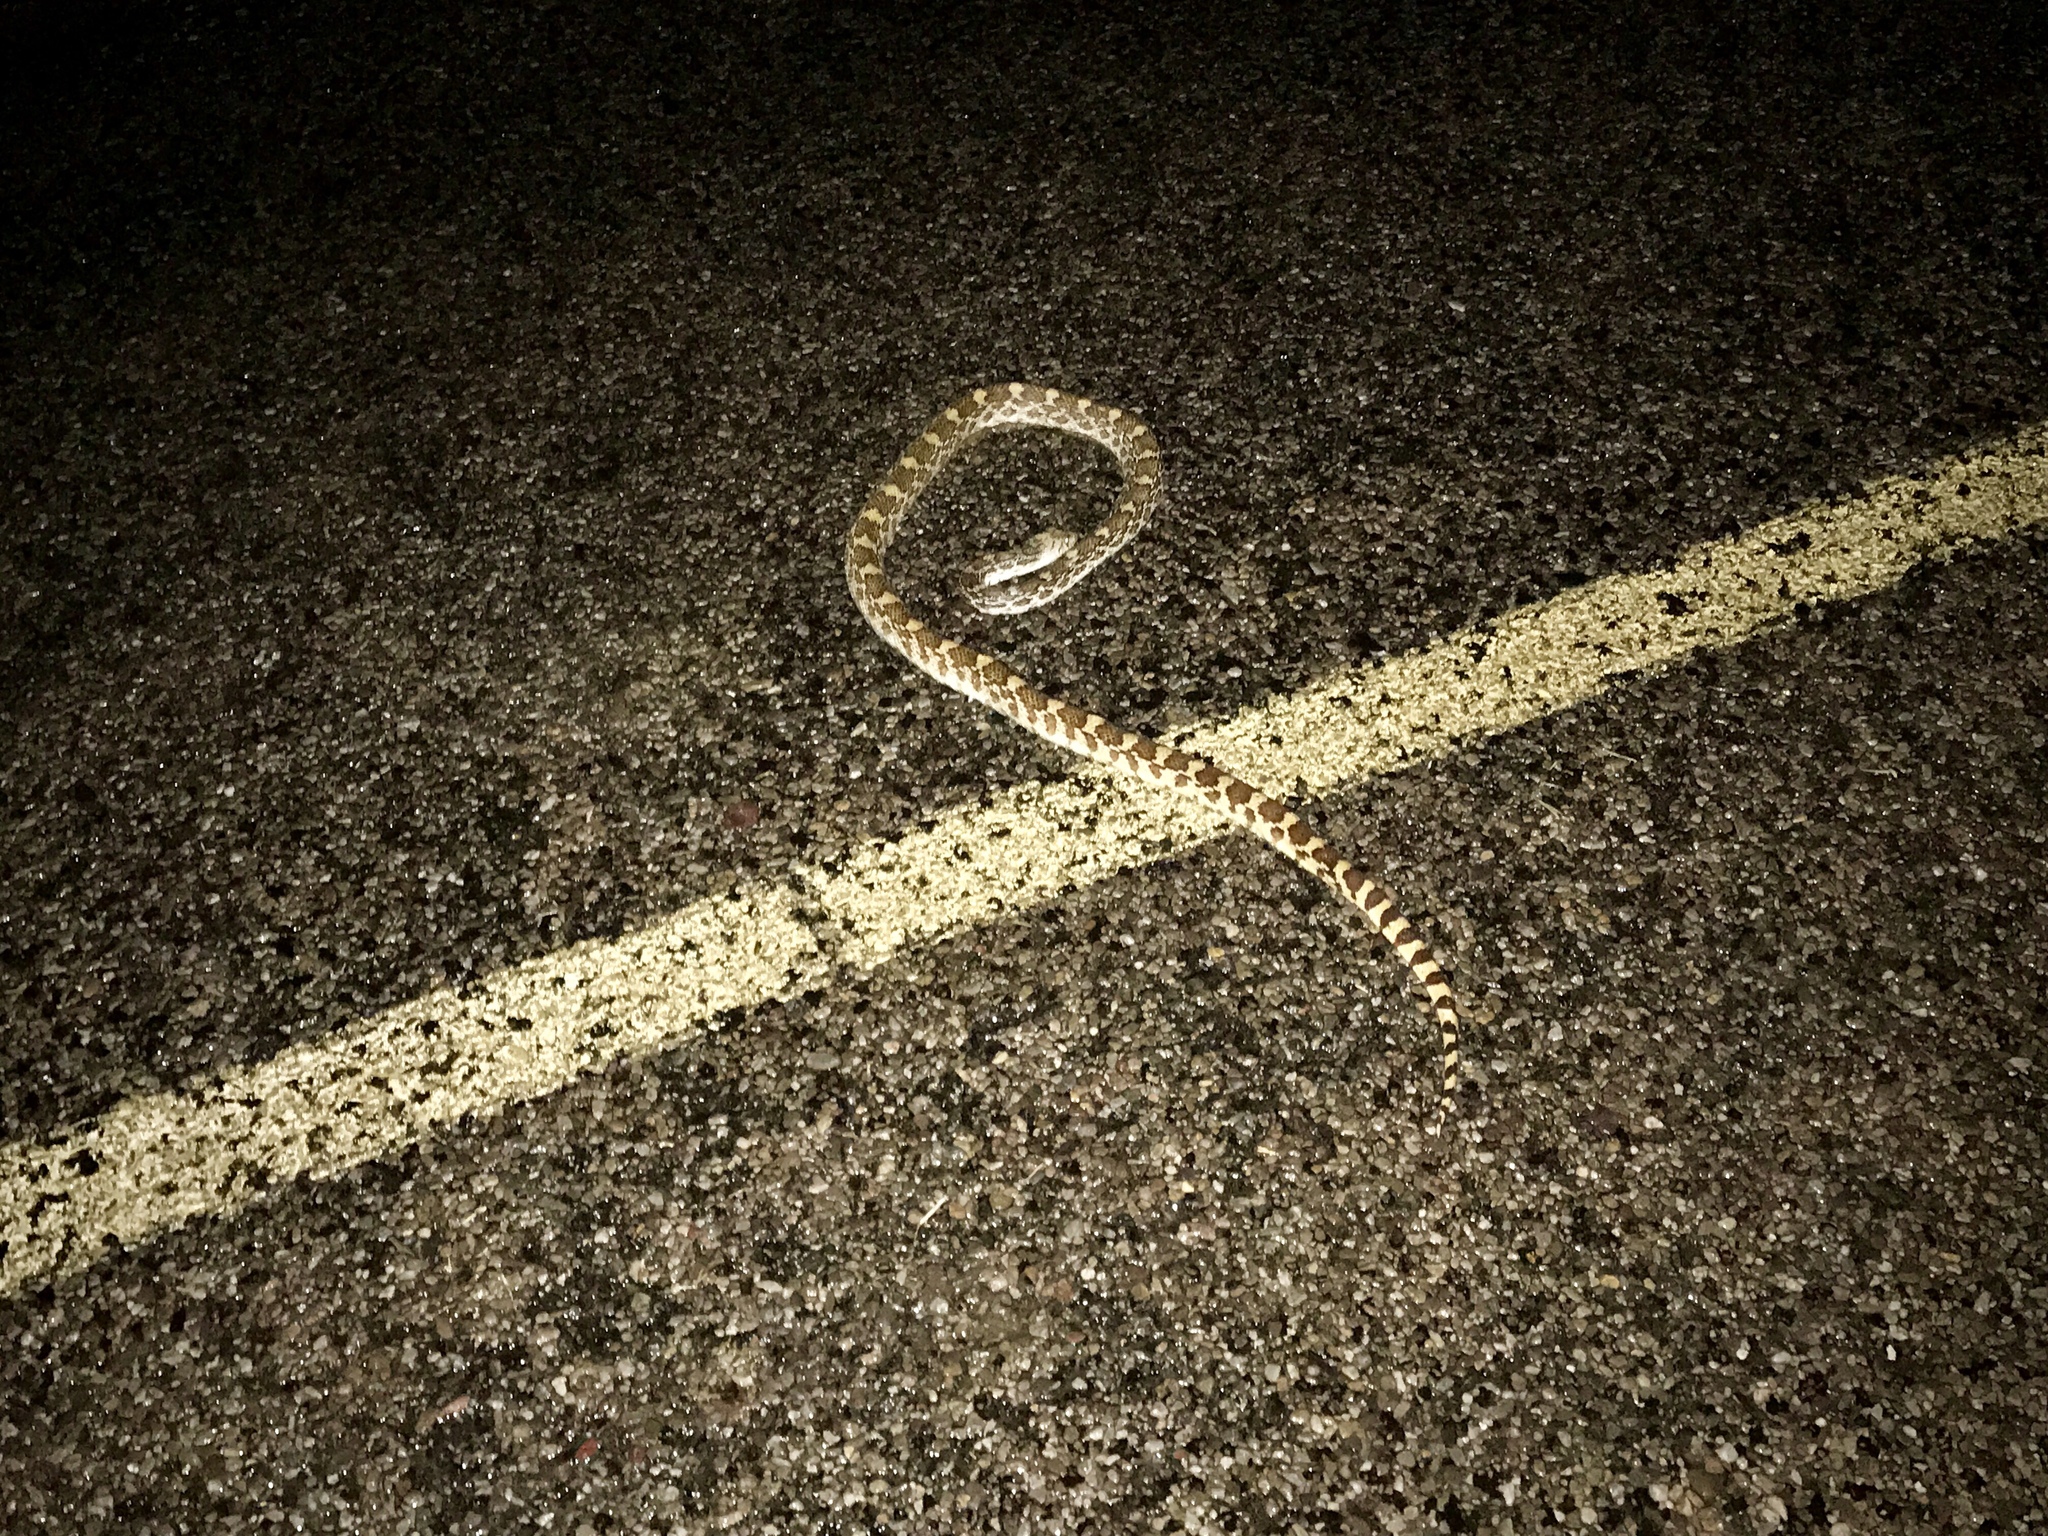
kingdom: Animalia
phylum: Chordata
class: Squamata
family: Colubridae
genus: Pituophis
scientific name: Pituophis catenifer
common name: Gopher snake
